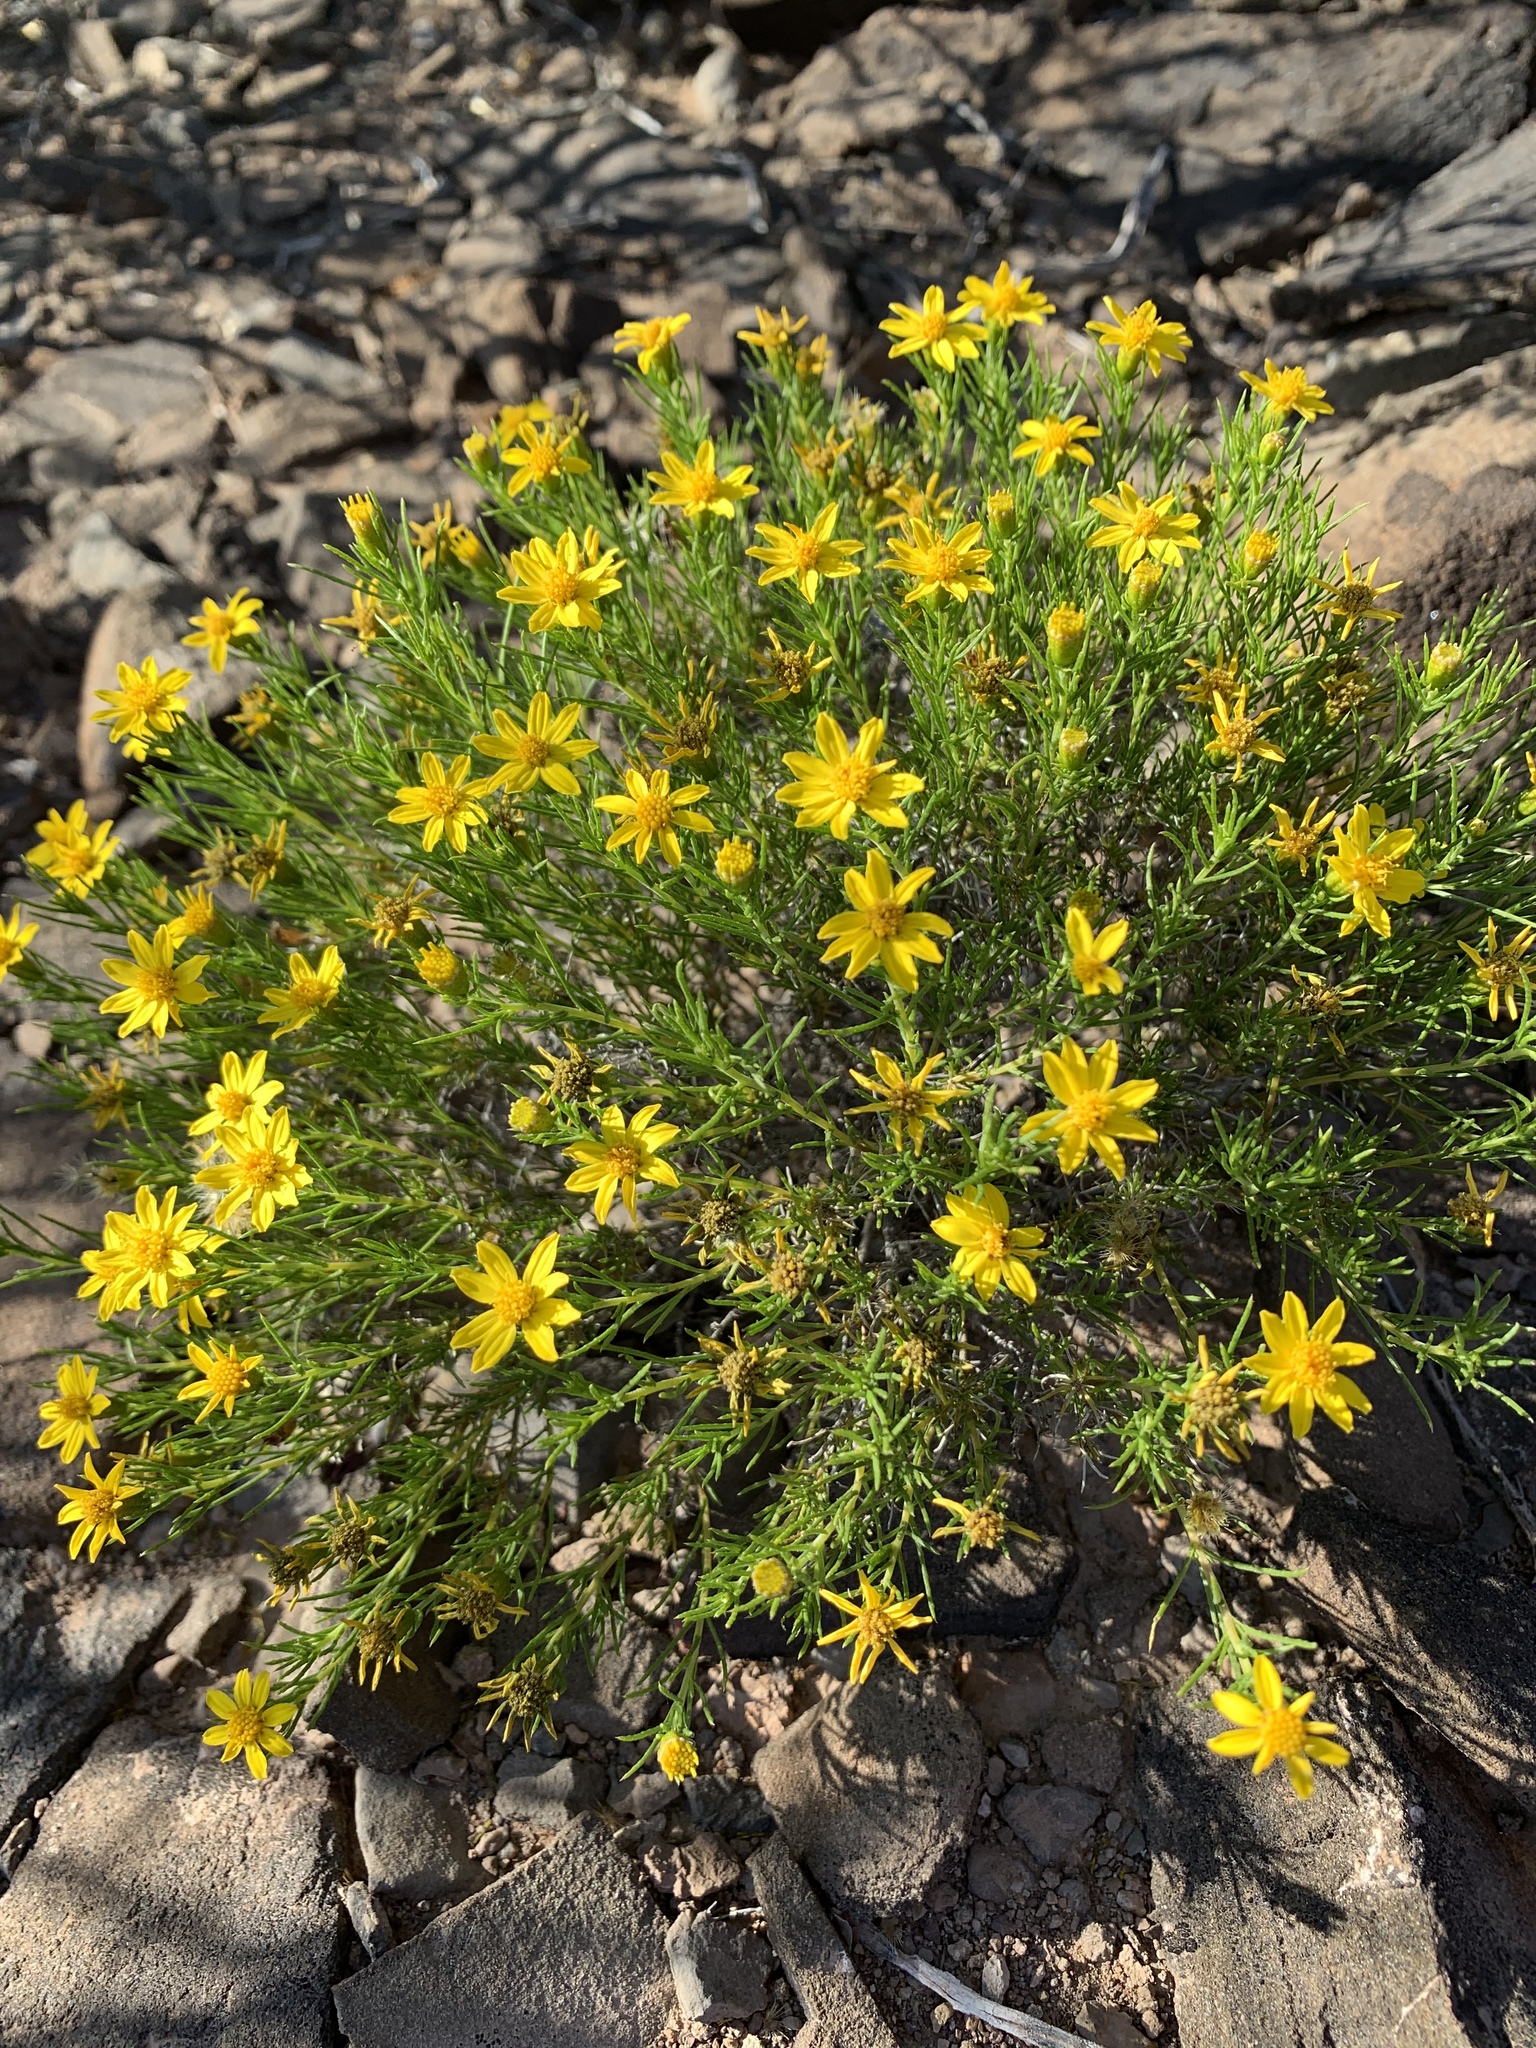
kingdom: Plantae
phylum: Tracheophyta
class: Magnoliopsida
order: Asterales
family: Asteraceae
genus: Thymophylla
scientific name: Thymophylla acerosa
